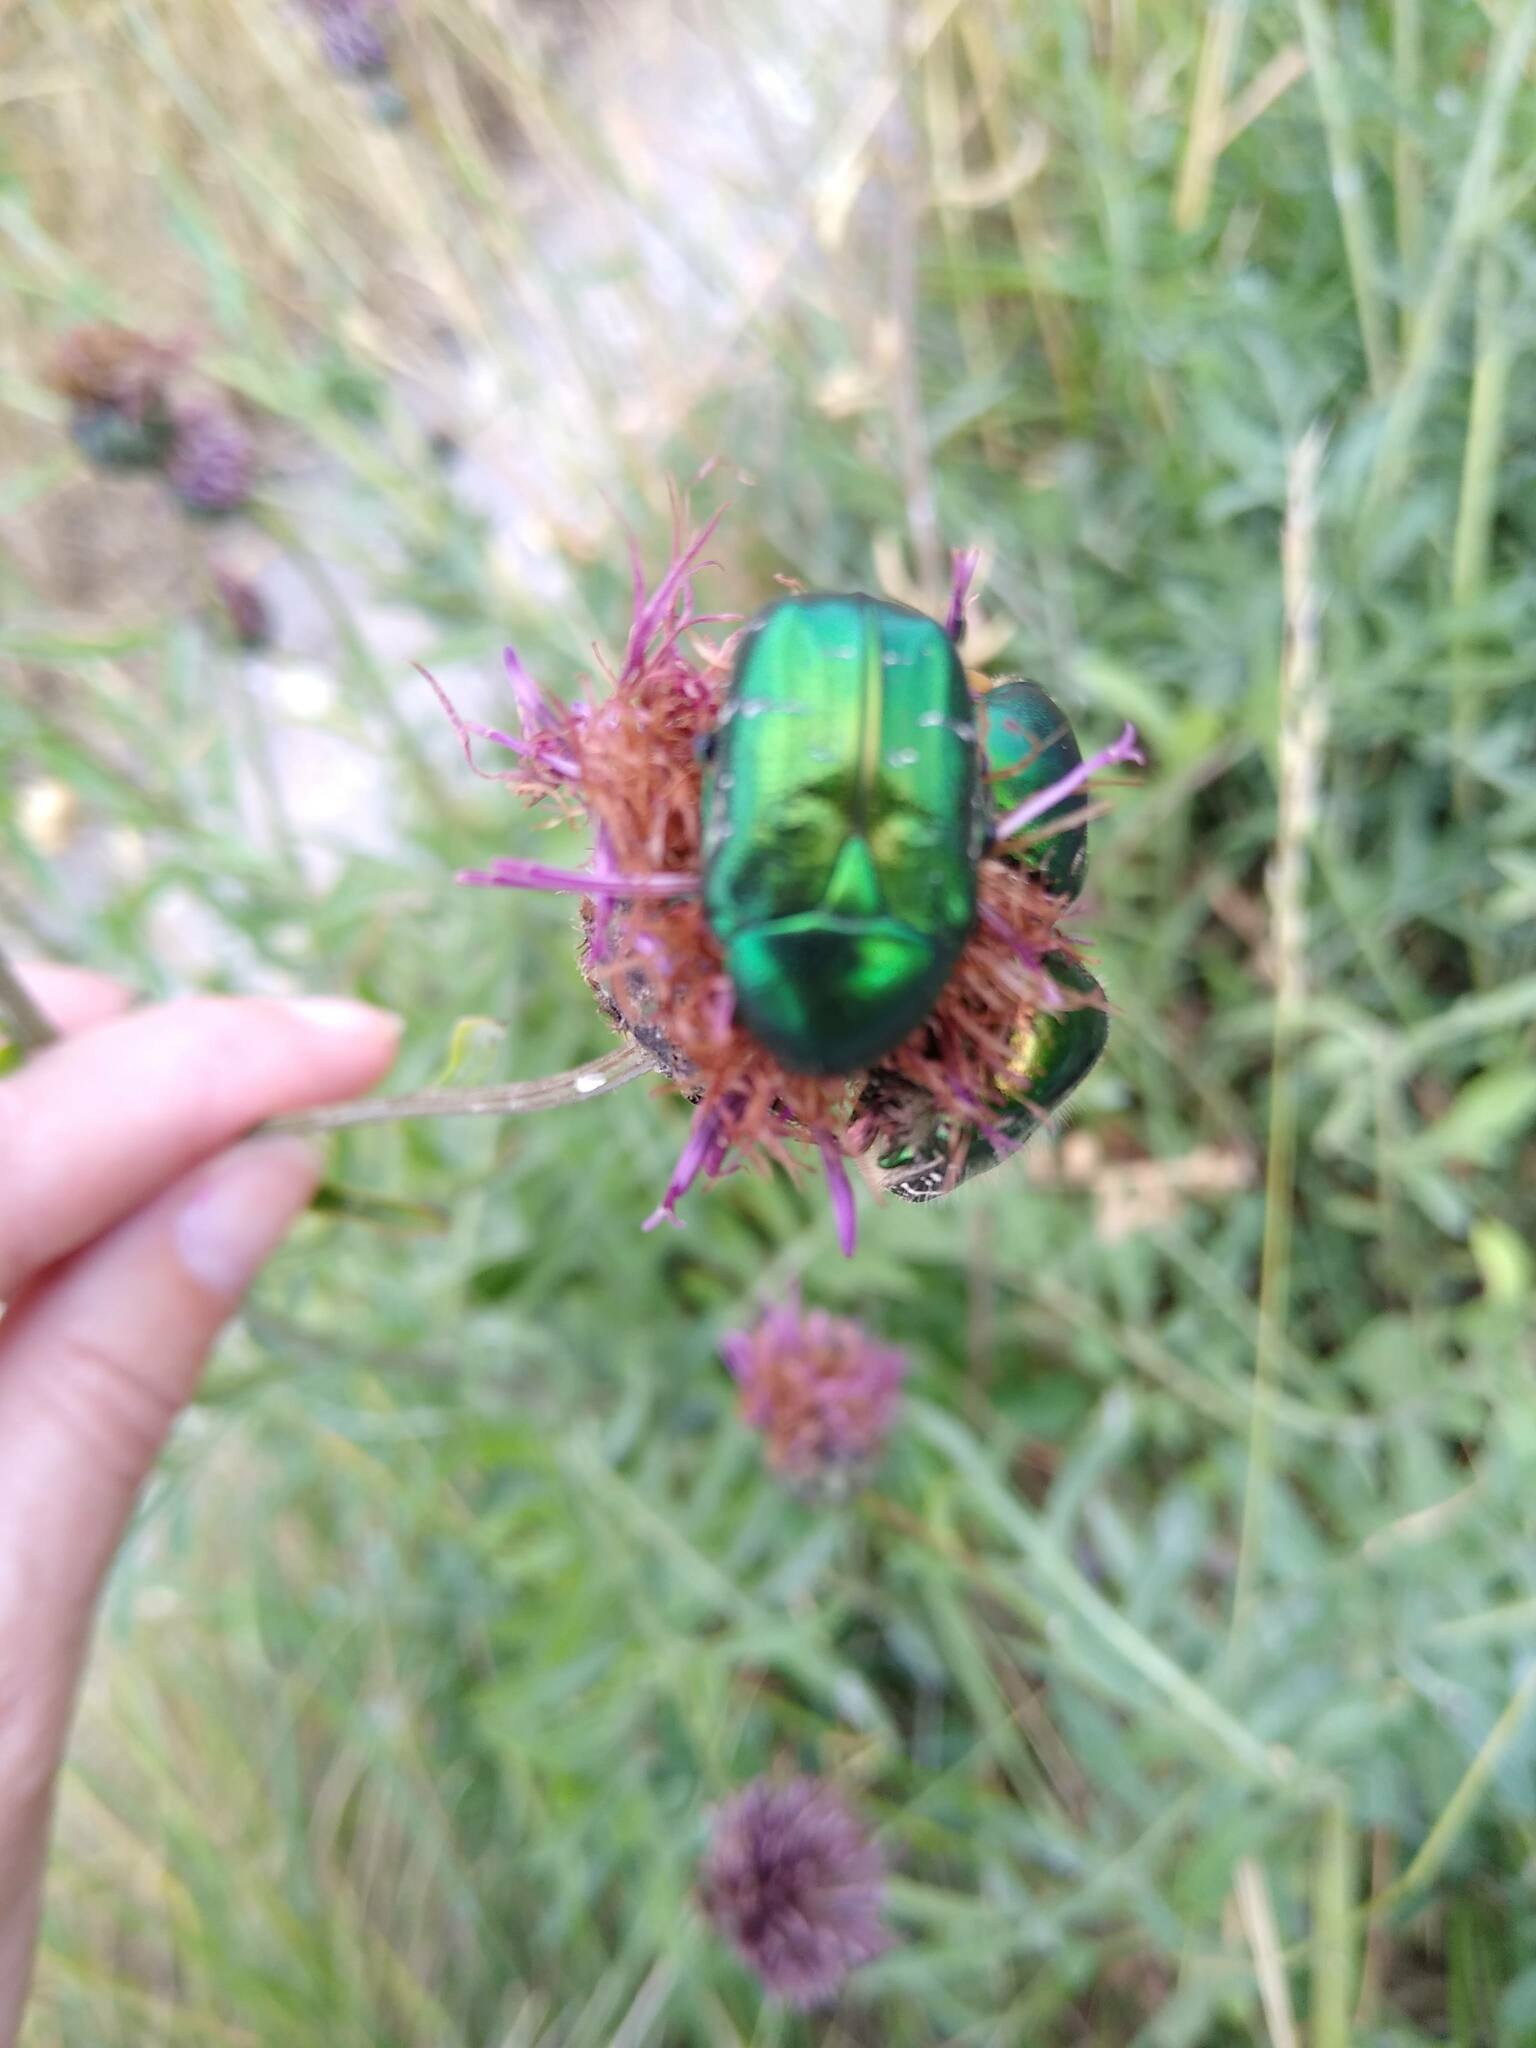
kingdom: Animalia
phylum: Arthropoda
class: Insecta
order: Coleoptera
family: Scarabaeidae
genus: Cetonia
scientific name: Cetonia aurata
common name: Rose chafer
